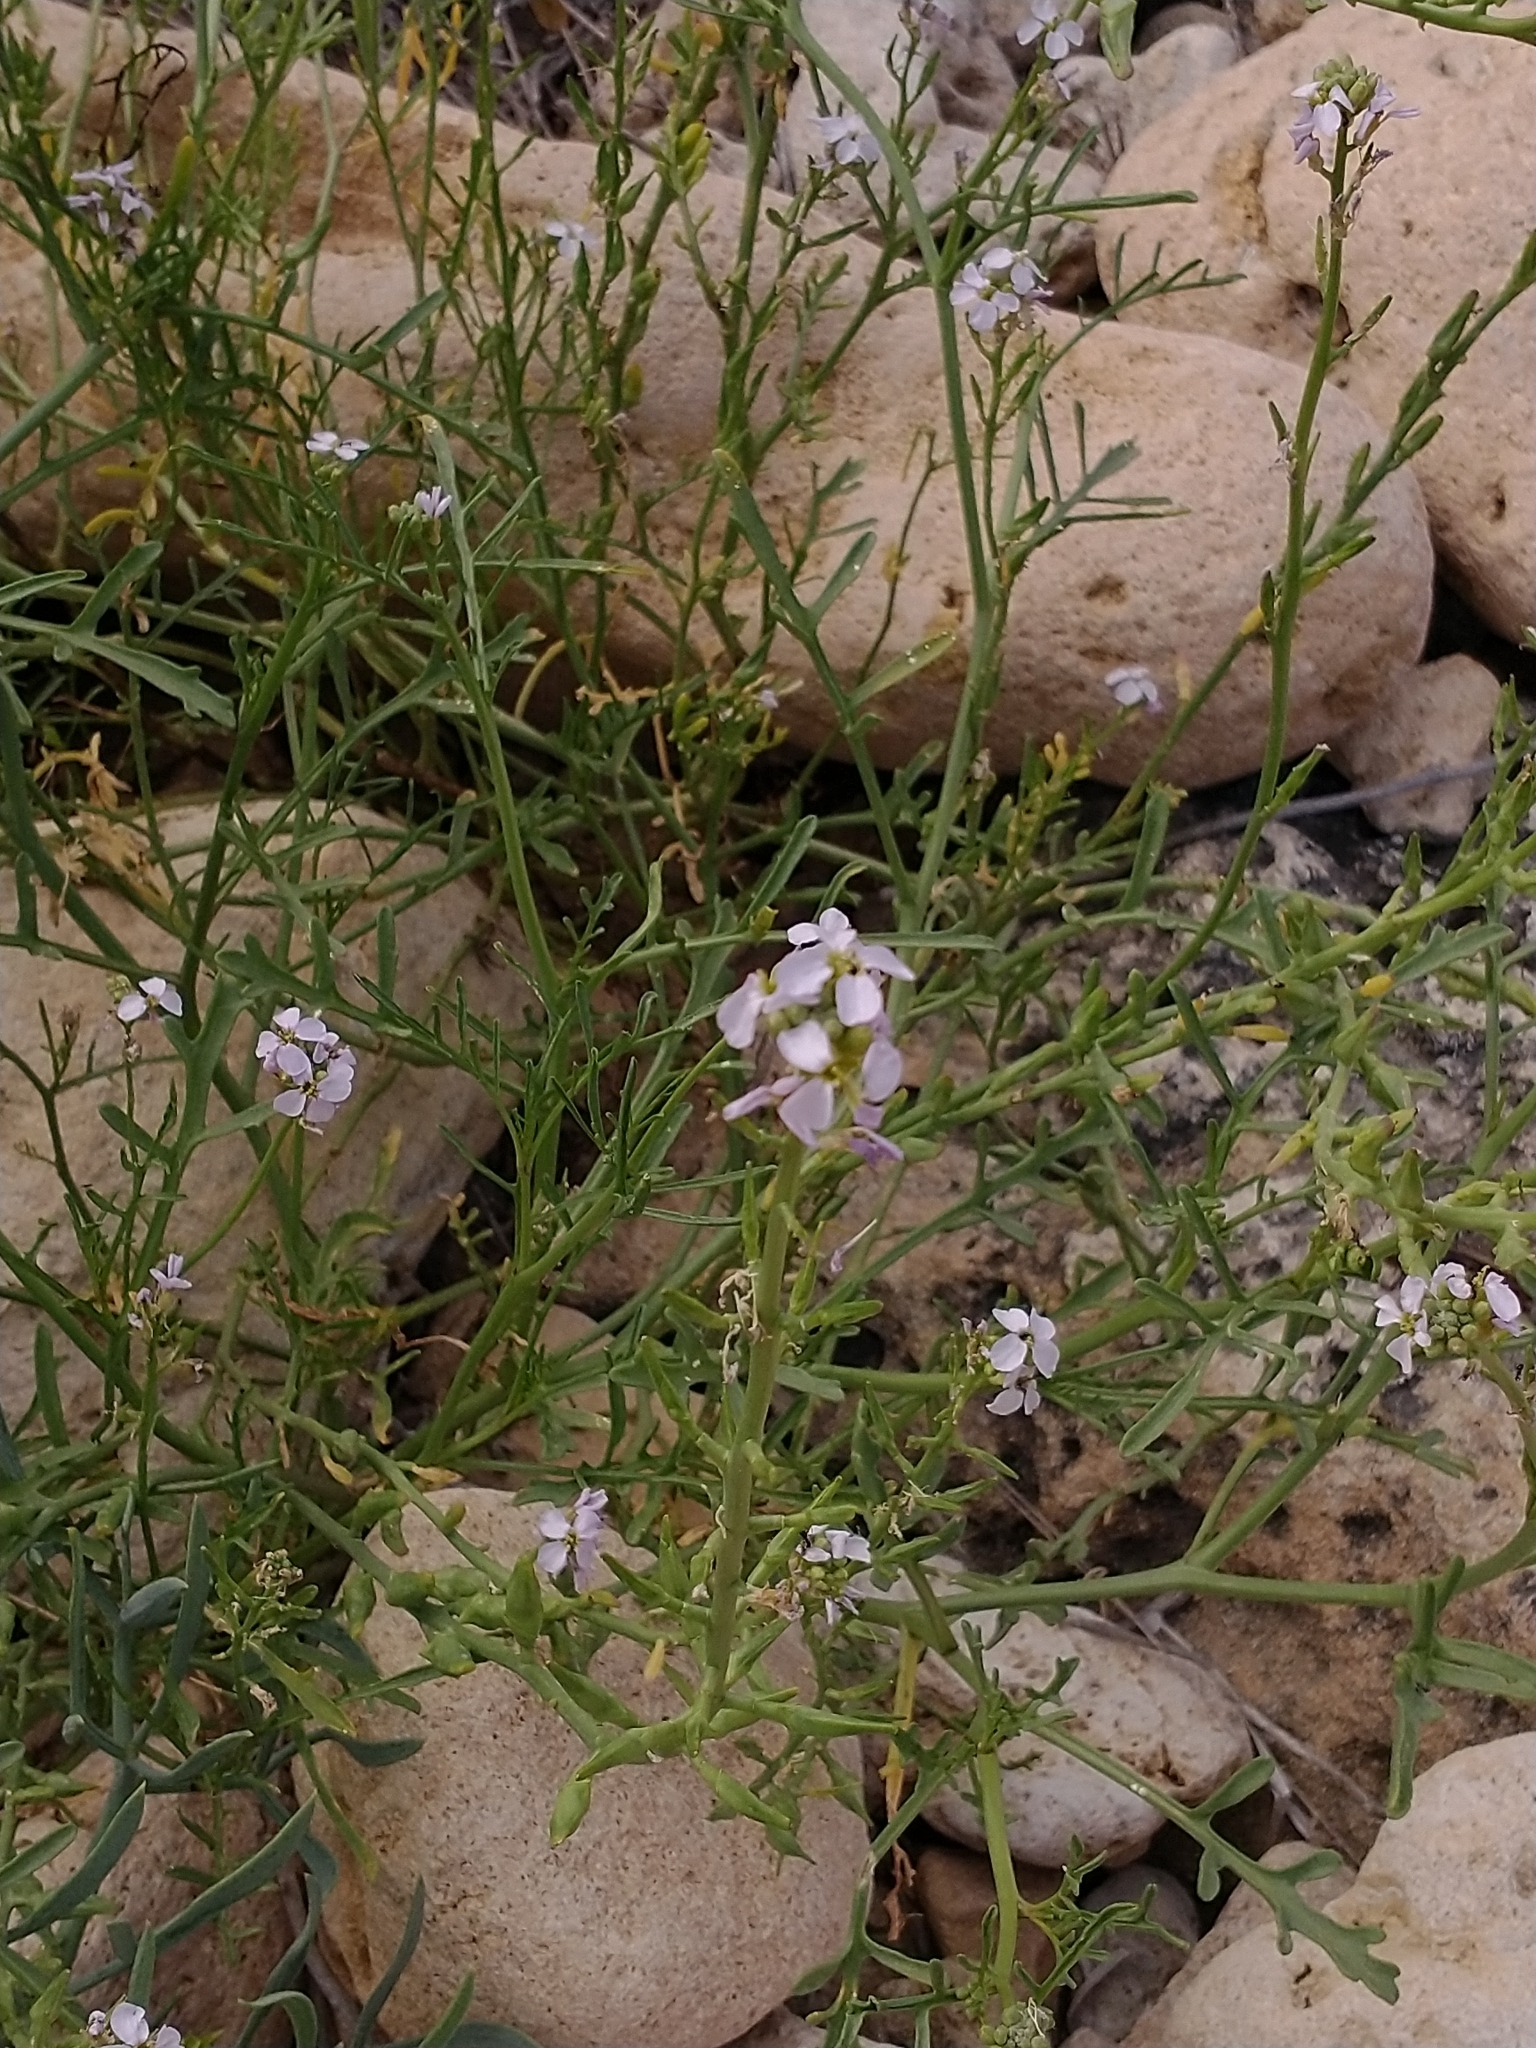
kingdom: Plantae
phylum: Tracheophyta
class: Magnoliopsida
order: Brassicales
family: Brassicaceae
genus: Cakile
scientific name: Cakile maritima
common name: Sea rocket
